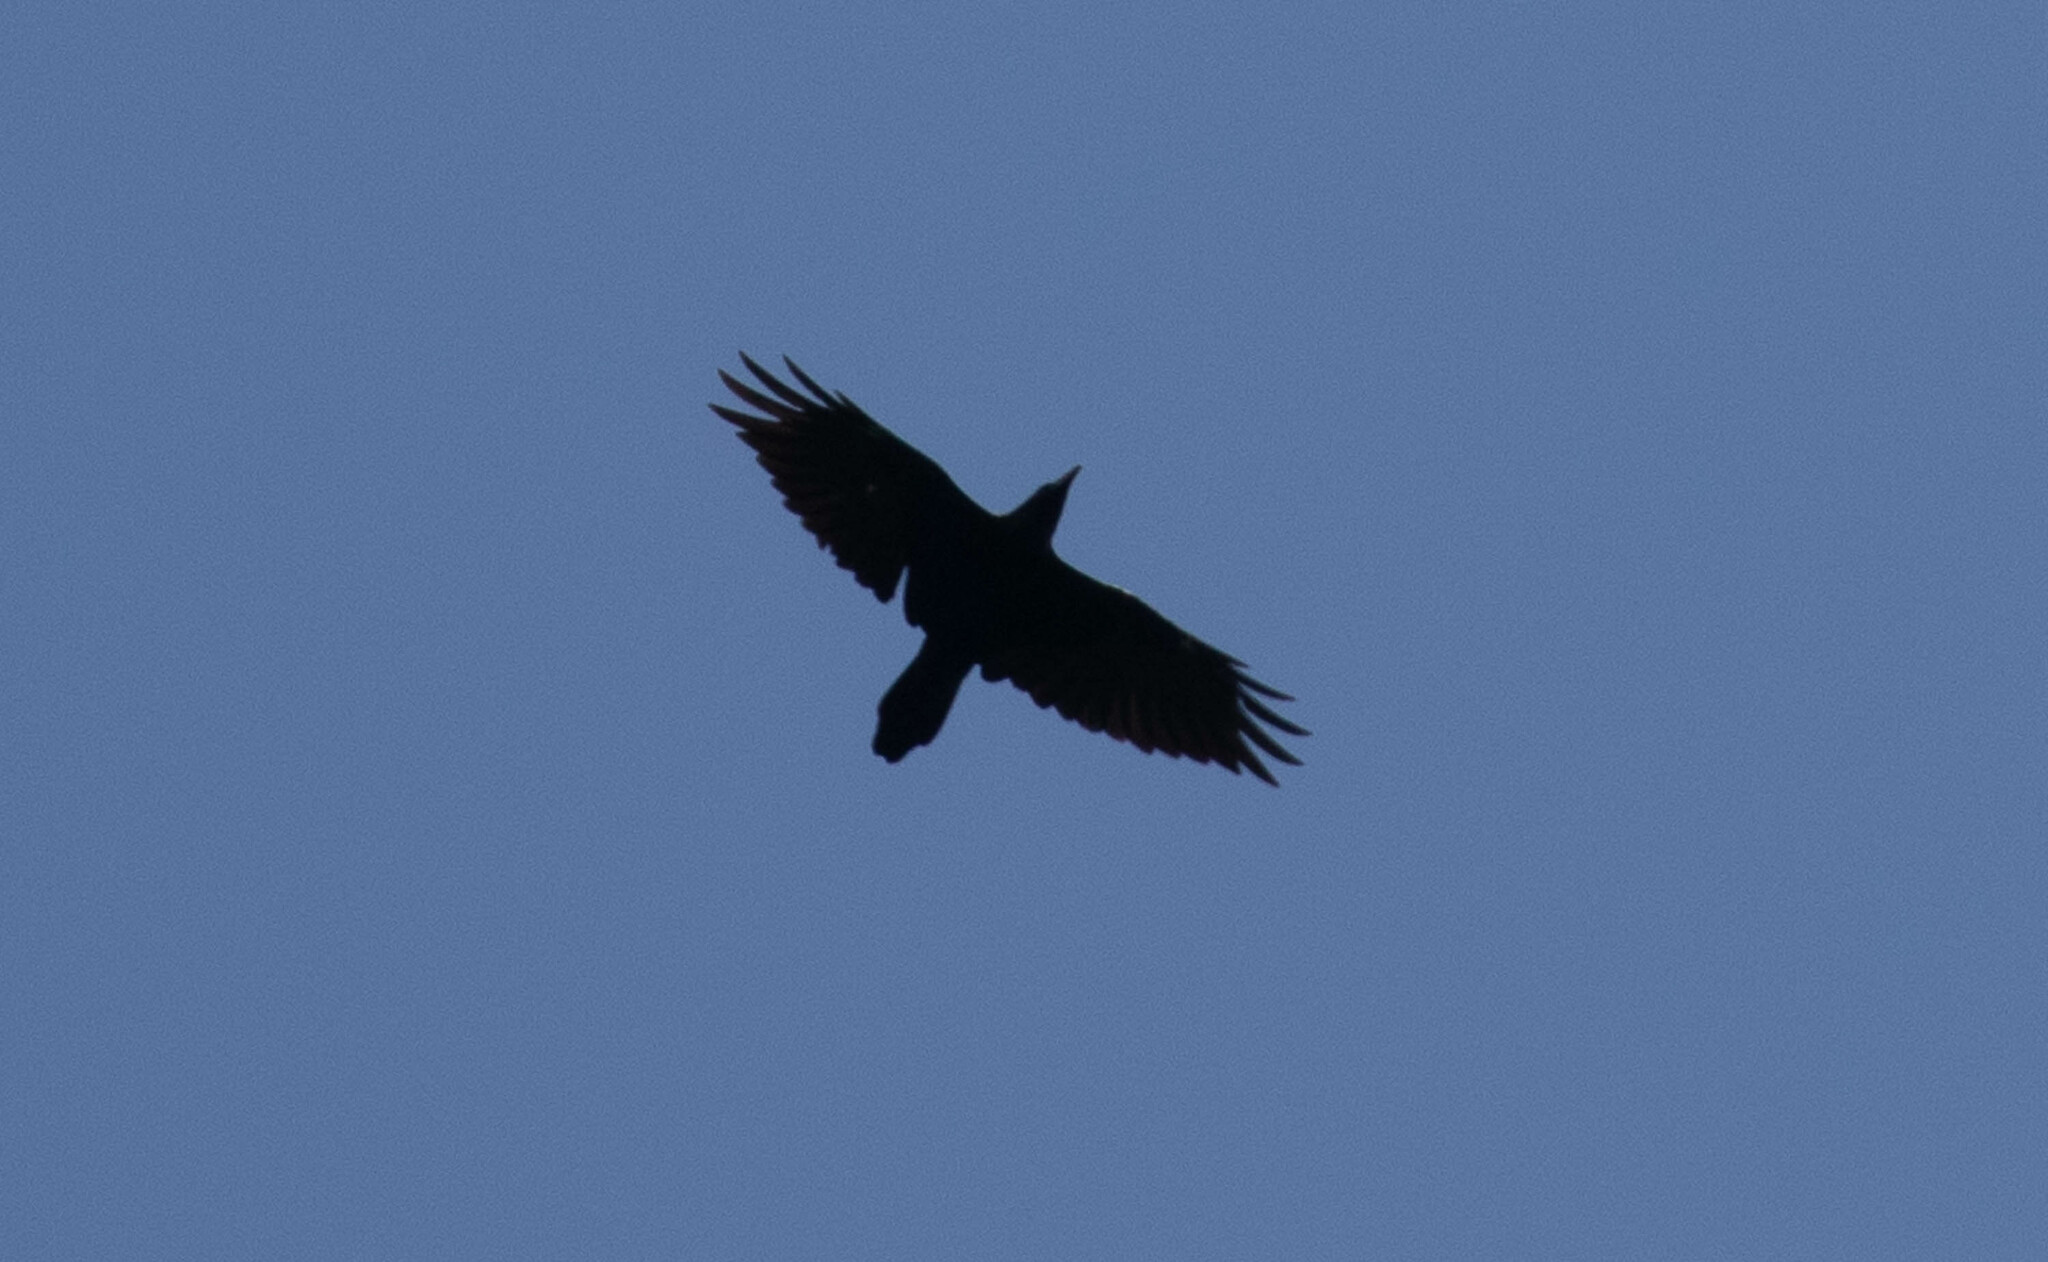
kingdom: Animalia
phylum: Chordata
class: Aves
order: Passeriformes
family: Corvidae
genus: Corvus
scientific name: Corvus corax
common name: Common raven
